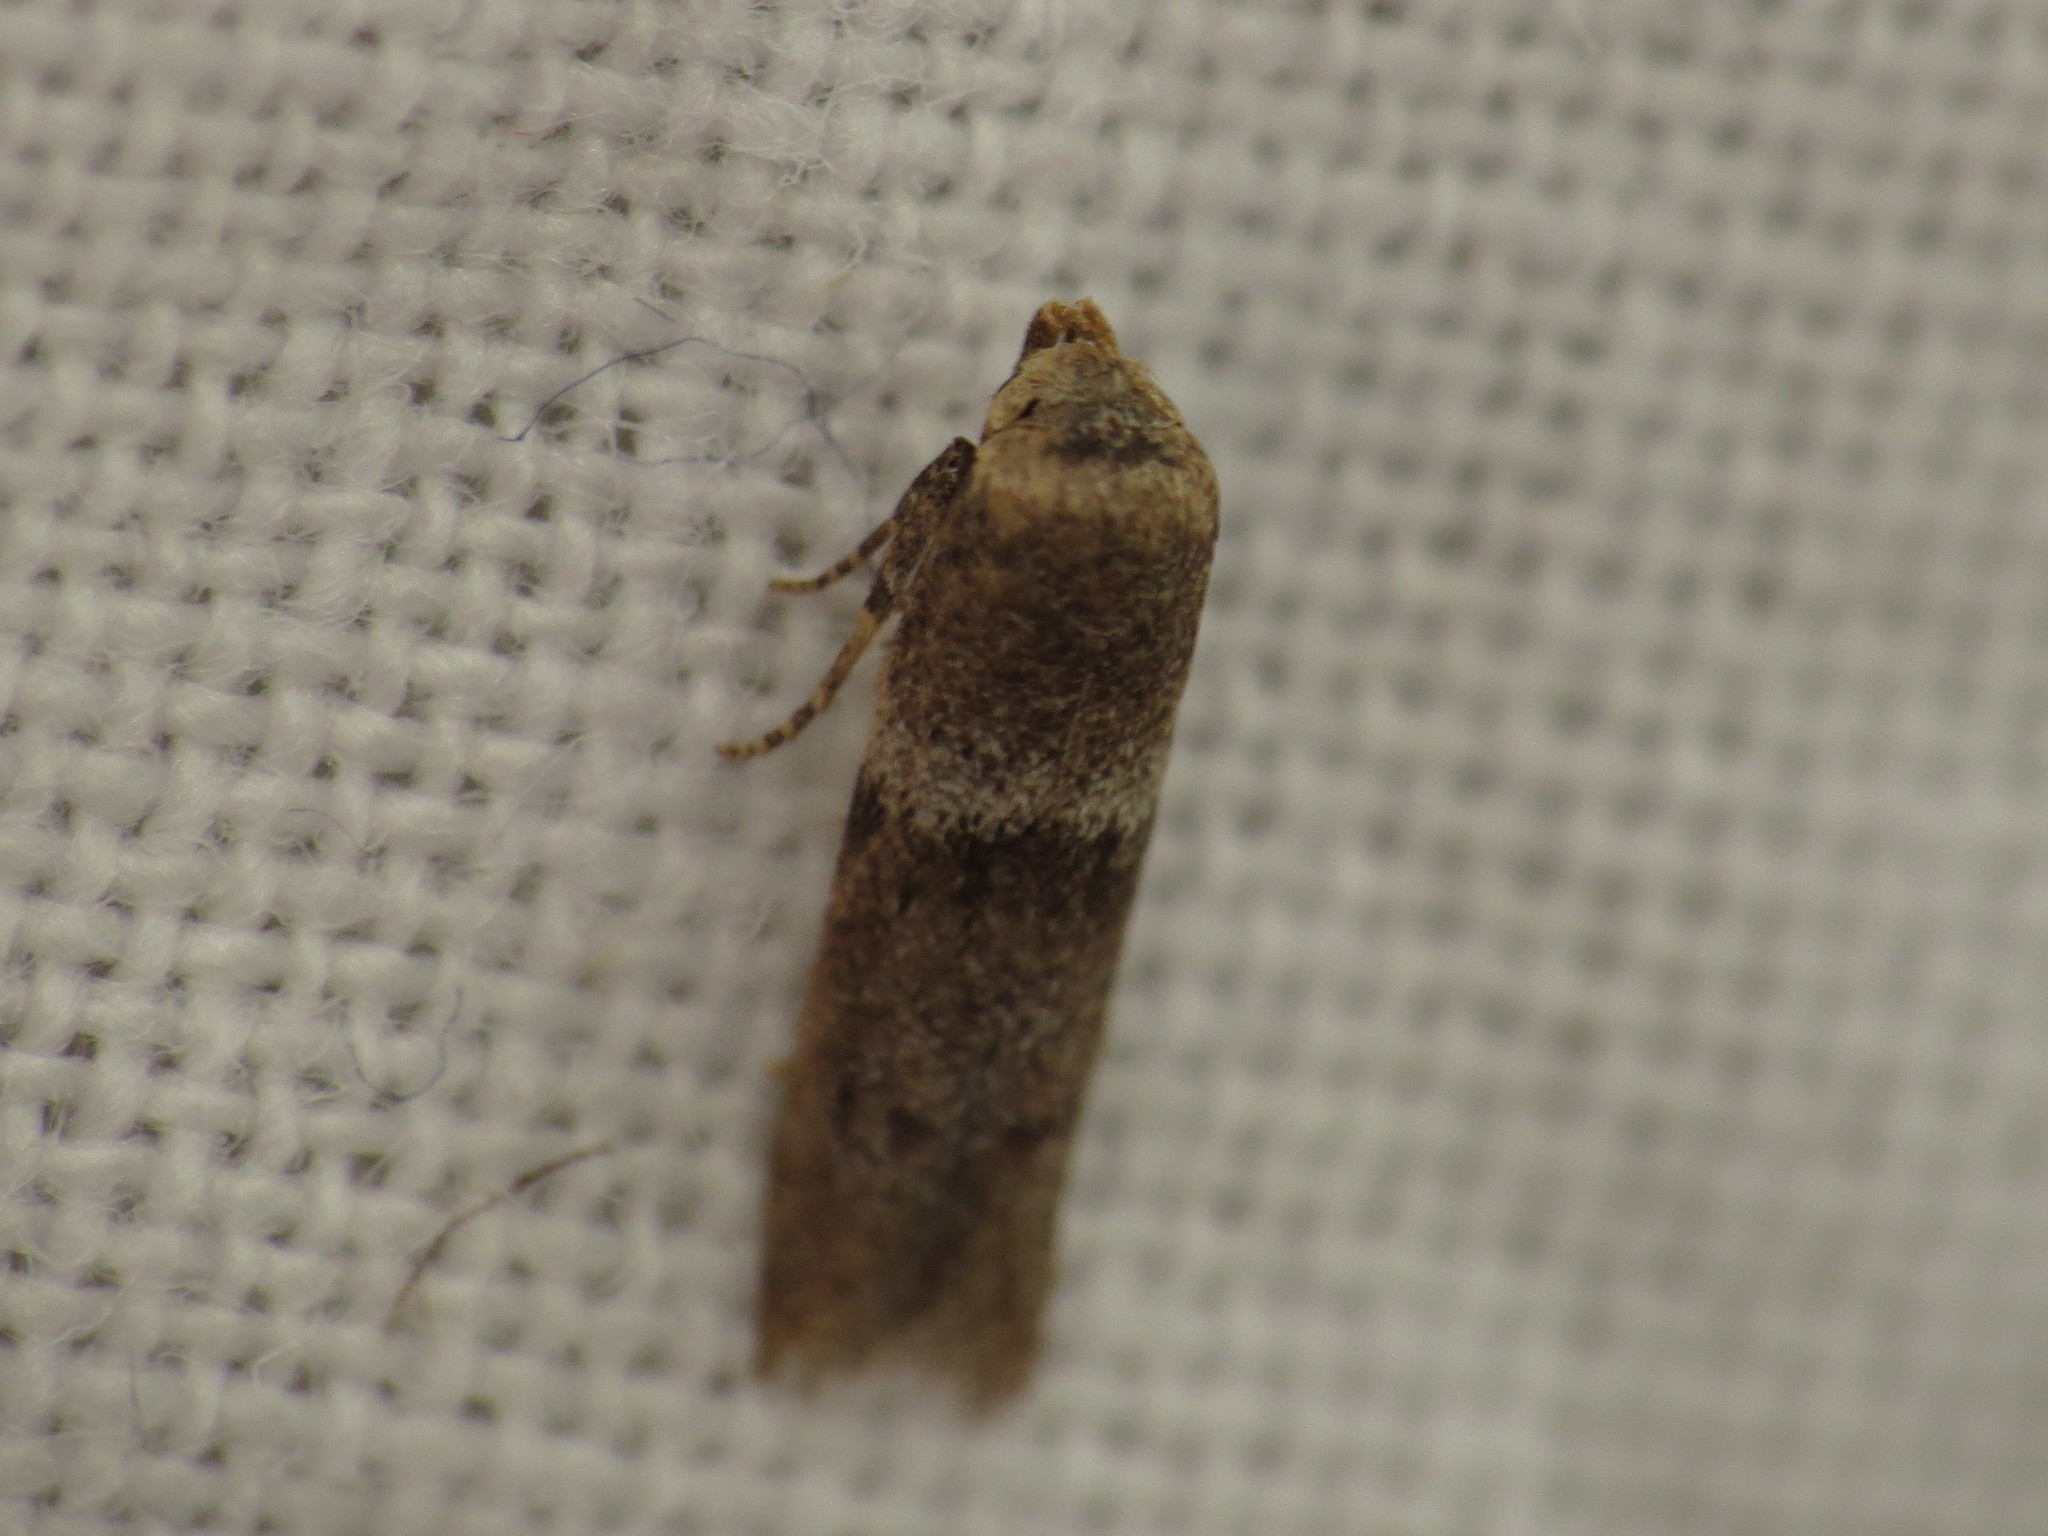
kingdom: Animalia
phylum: Arthropoda
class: Insecta
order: Lepidoptera
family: Blastobasidae
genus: Blastobasis
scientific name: Blastobasis scotia
